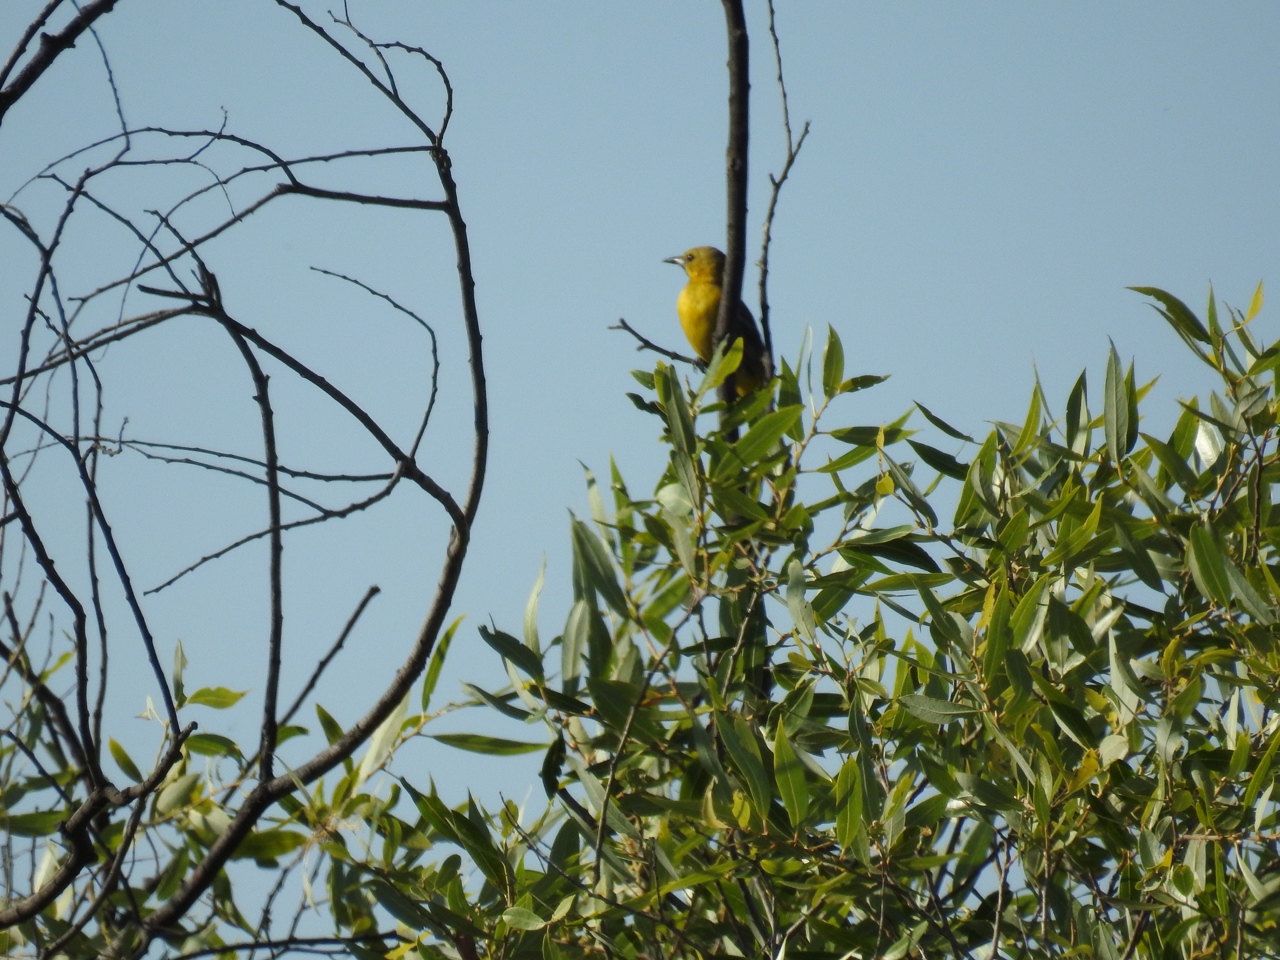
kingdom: Animalia
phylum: Chordata
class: Aves
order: Passeriformes
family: Icteridae
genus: Icterus
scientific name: Icterus cucullatus
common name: Hooded oriole
